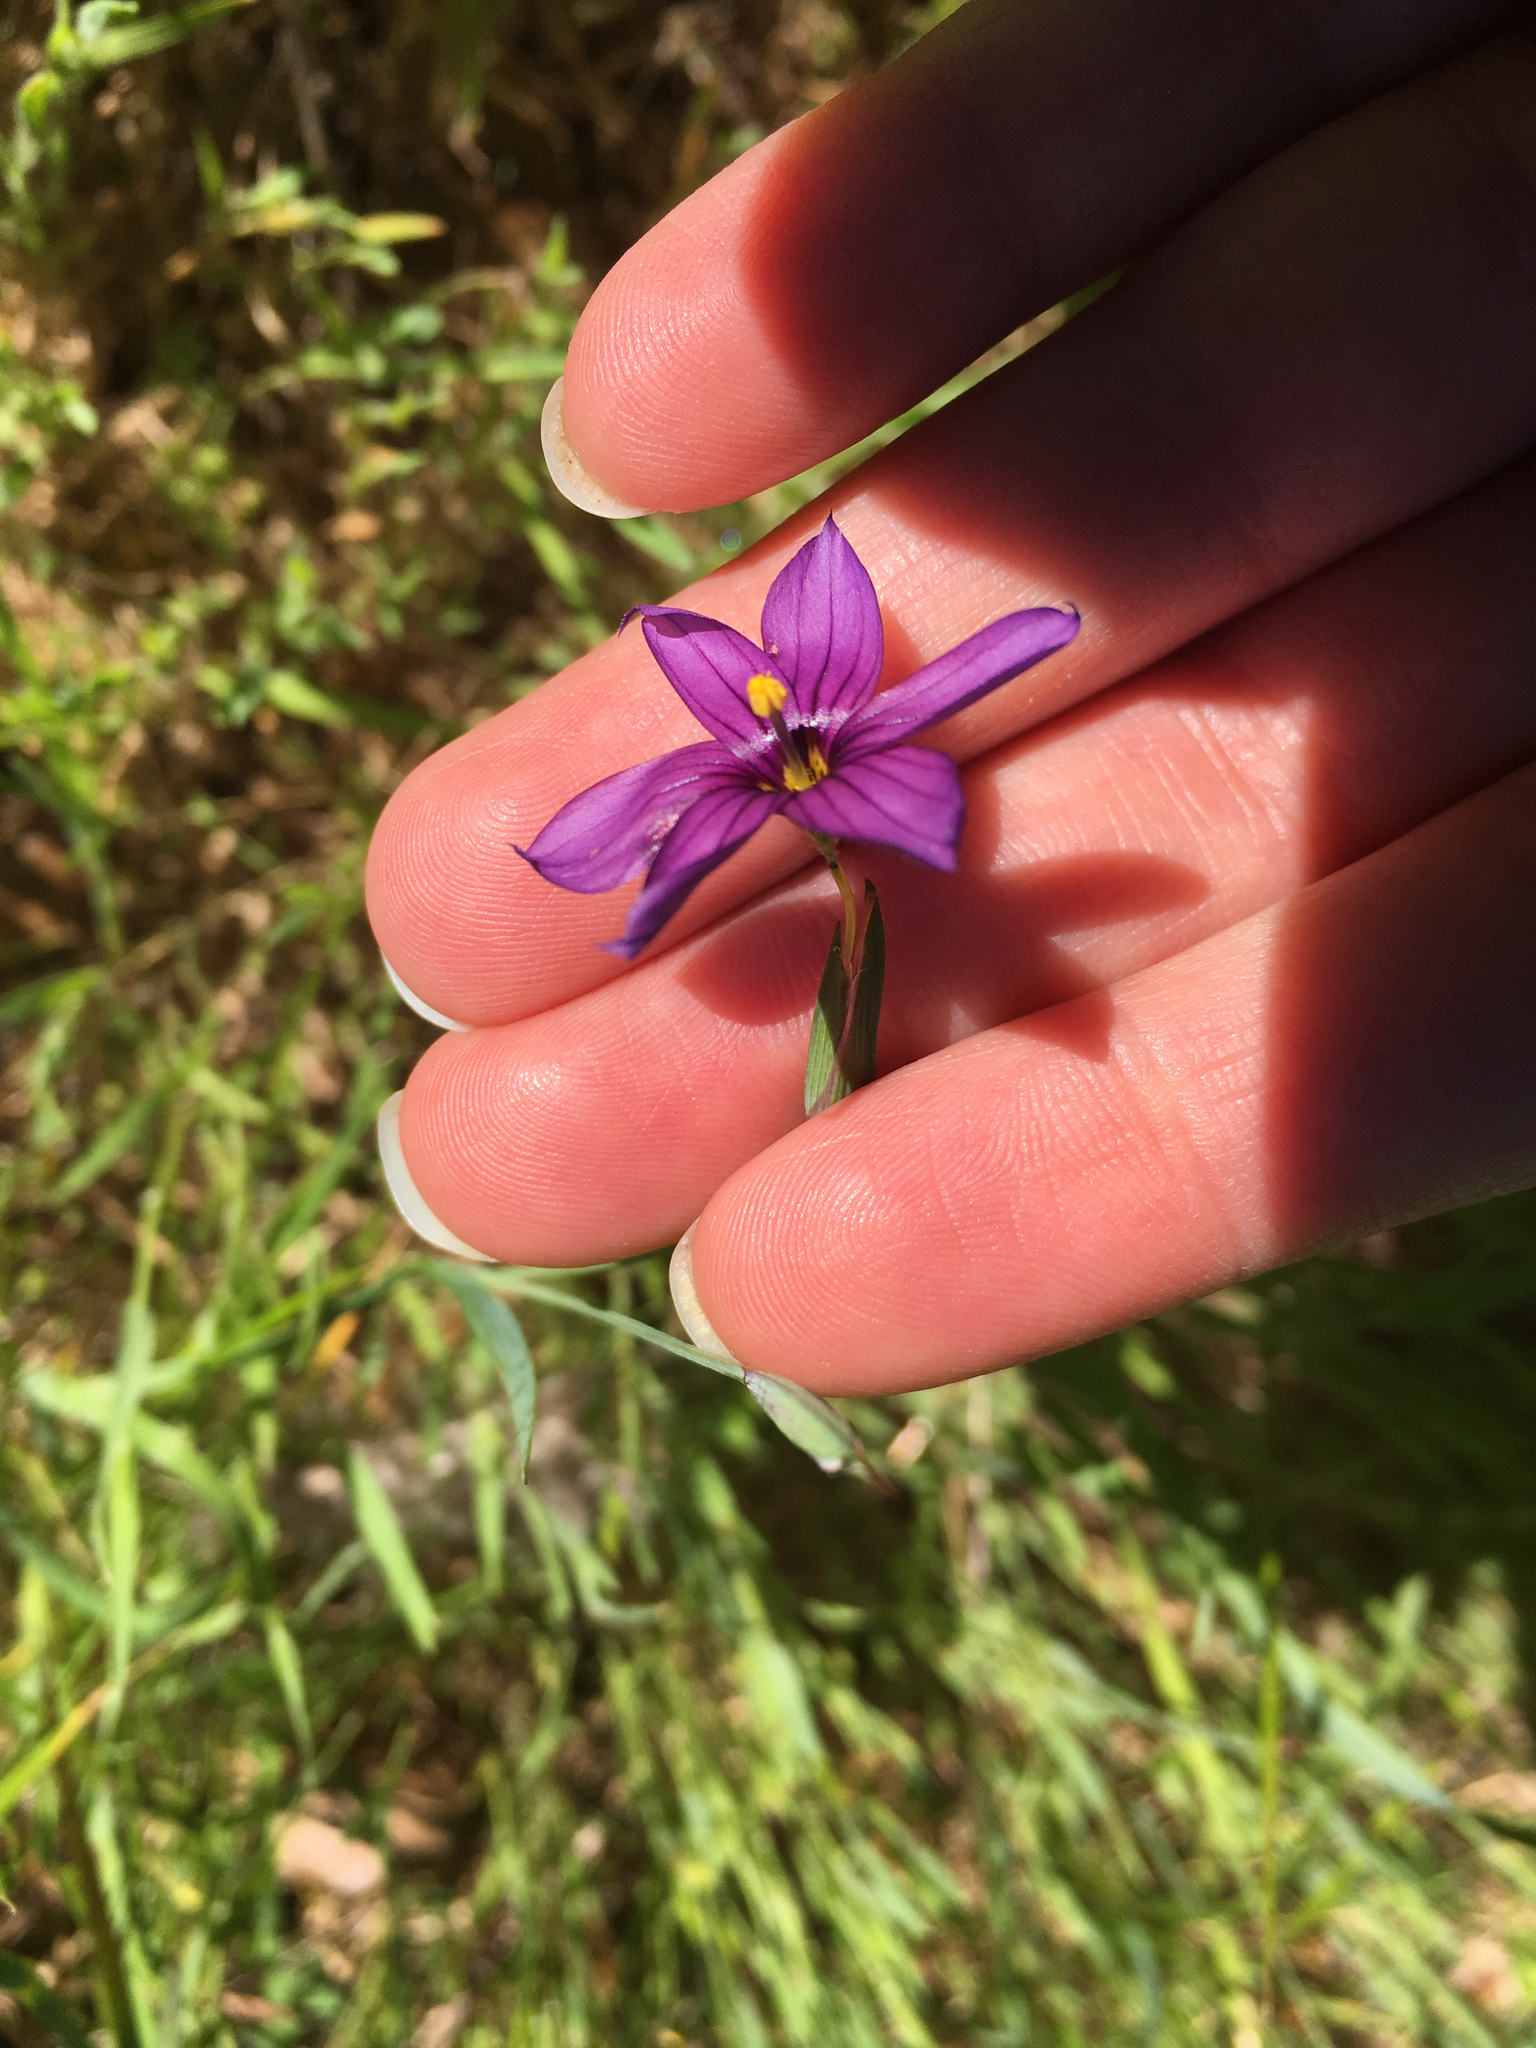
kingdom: Plantae
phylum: Tracheophyta
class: Liliopsida
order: Asparagales
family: Iridaceae
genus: Sisyrinchium
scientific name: Sisyrinchium bellum
